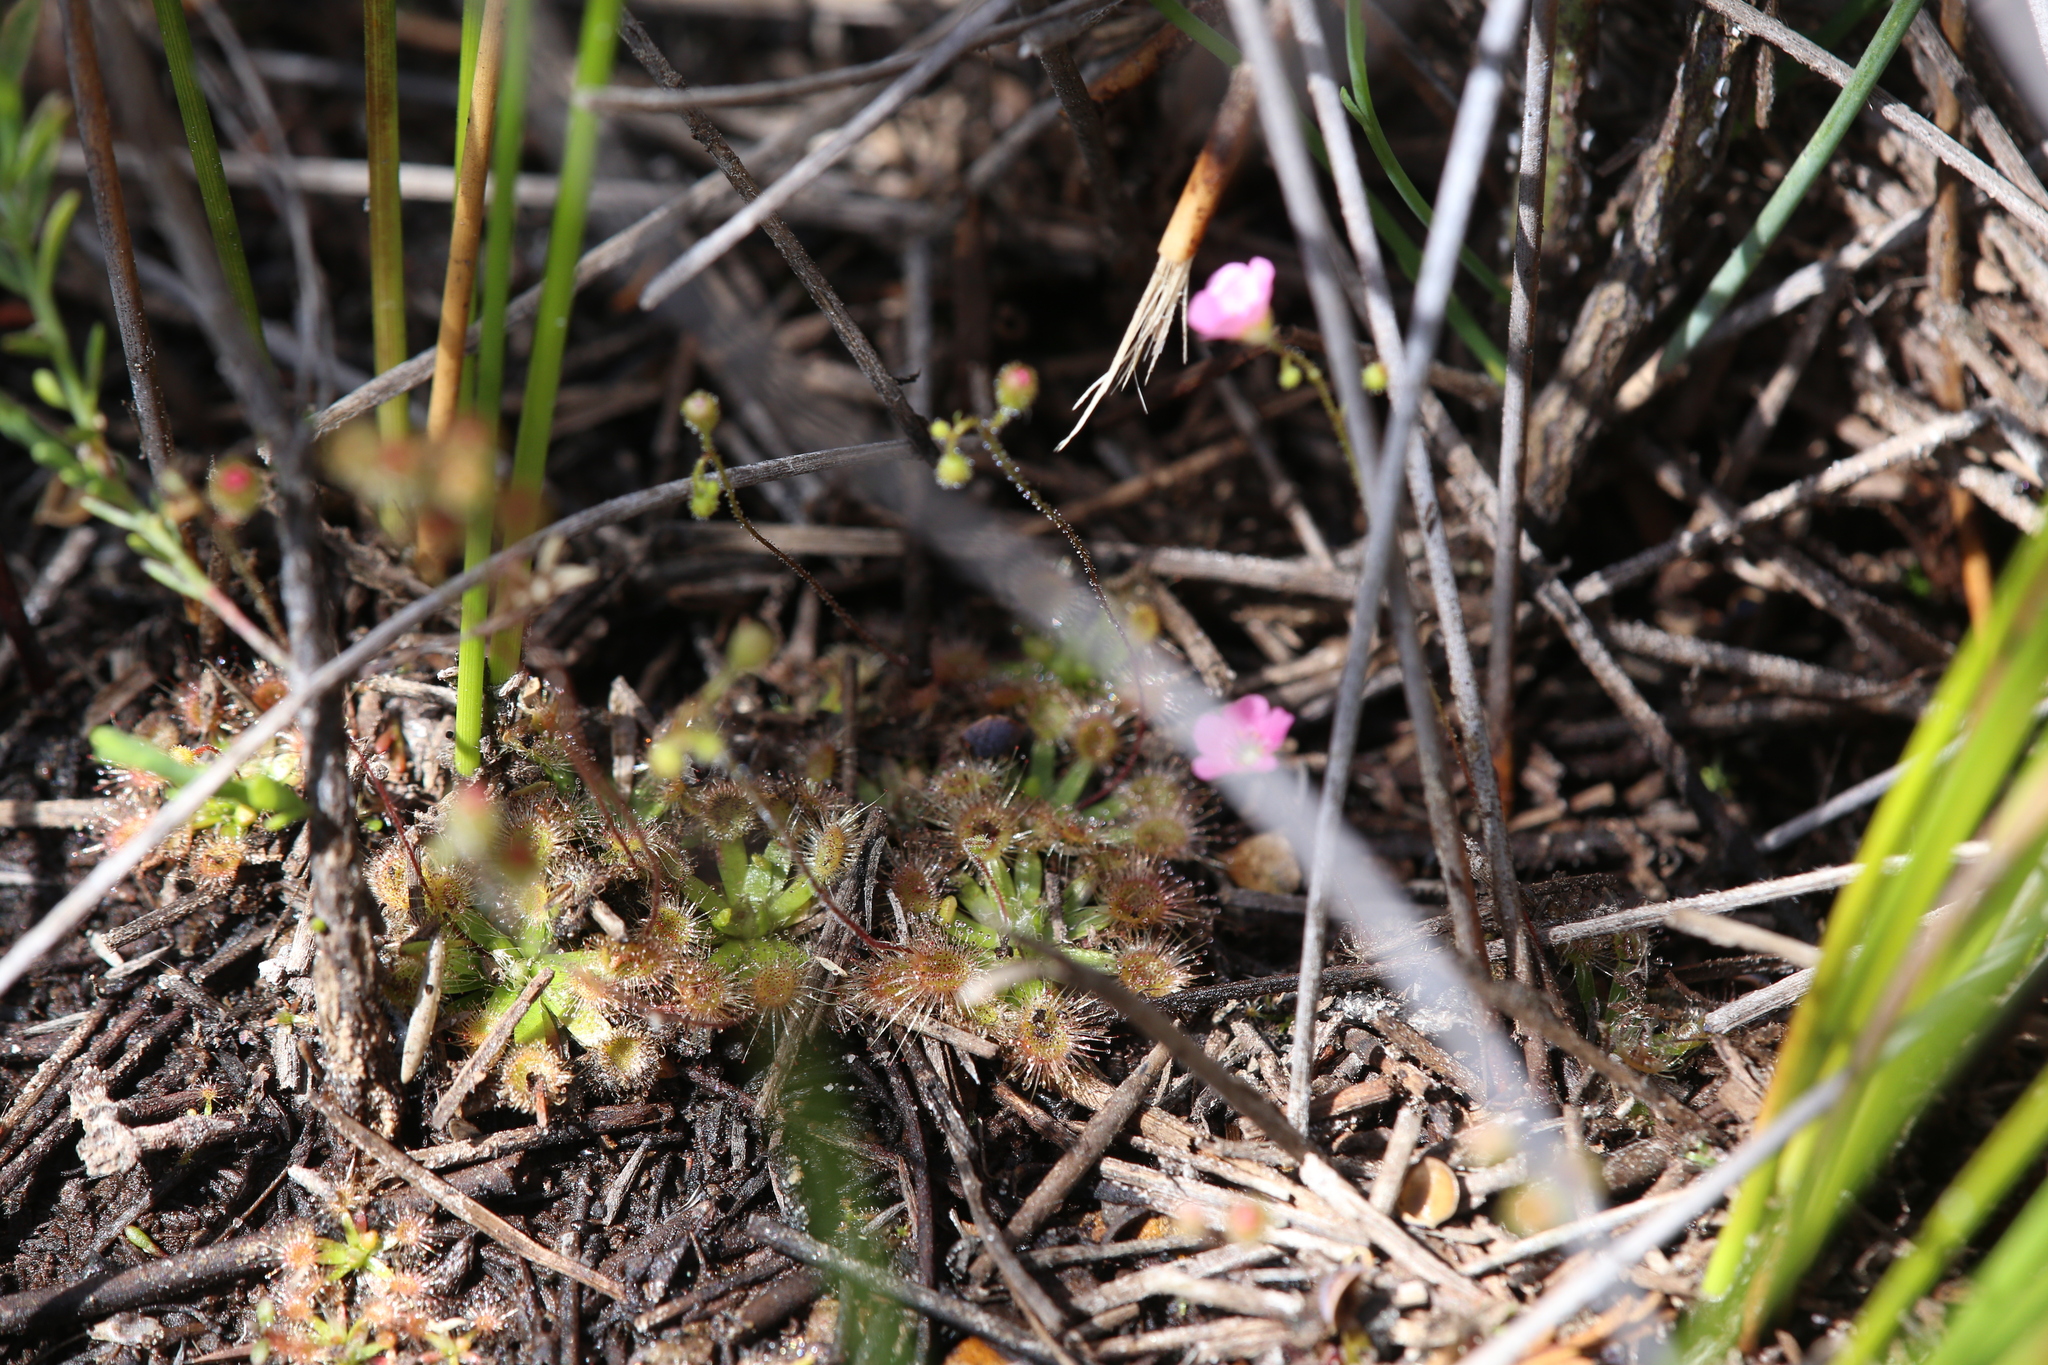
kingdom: Plantae
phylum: Tracheophyta
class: Magnoliopsida
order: Caryophyllales
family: Droseraceae
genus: Drosera
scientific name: Drosera pulchella
